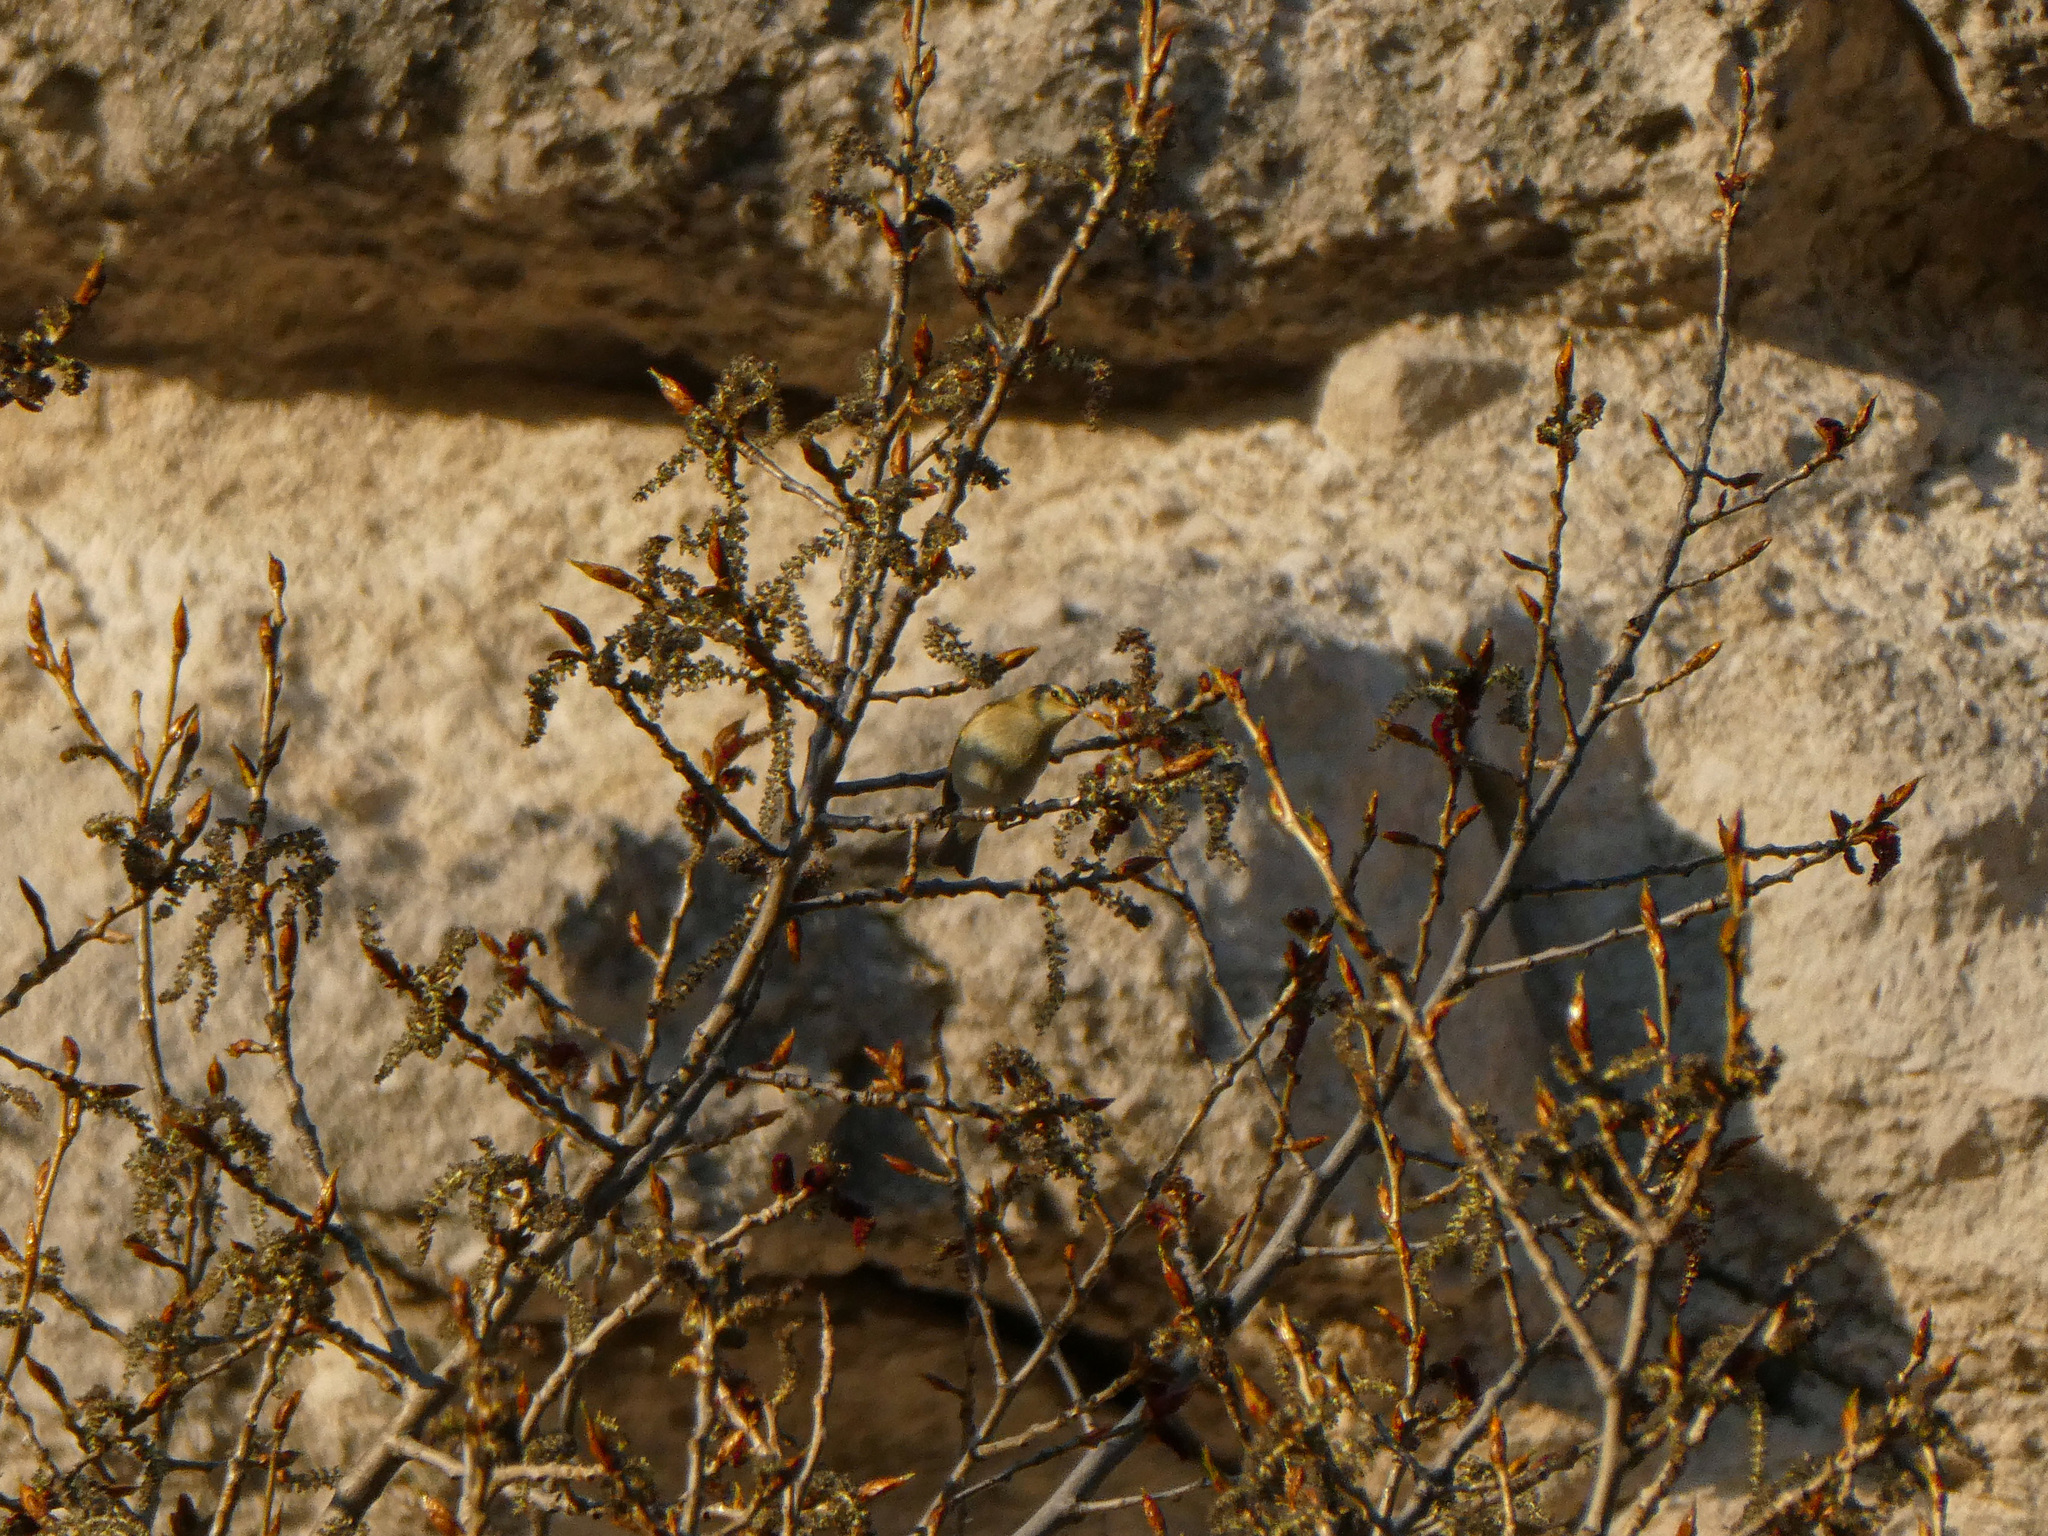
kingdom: Animalia
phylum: Chordata
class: Aves
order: Passeriformes
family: Phylloscopidae
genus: Phylloscopus
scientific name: Phylloscopus
